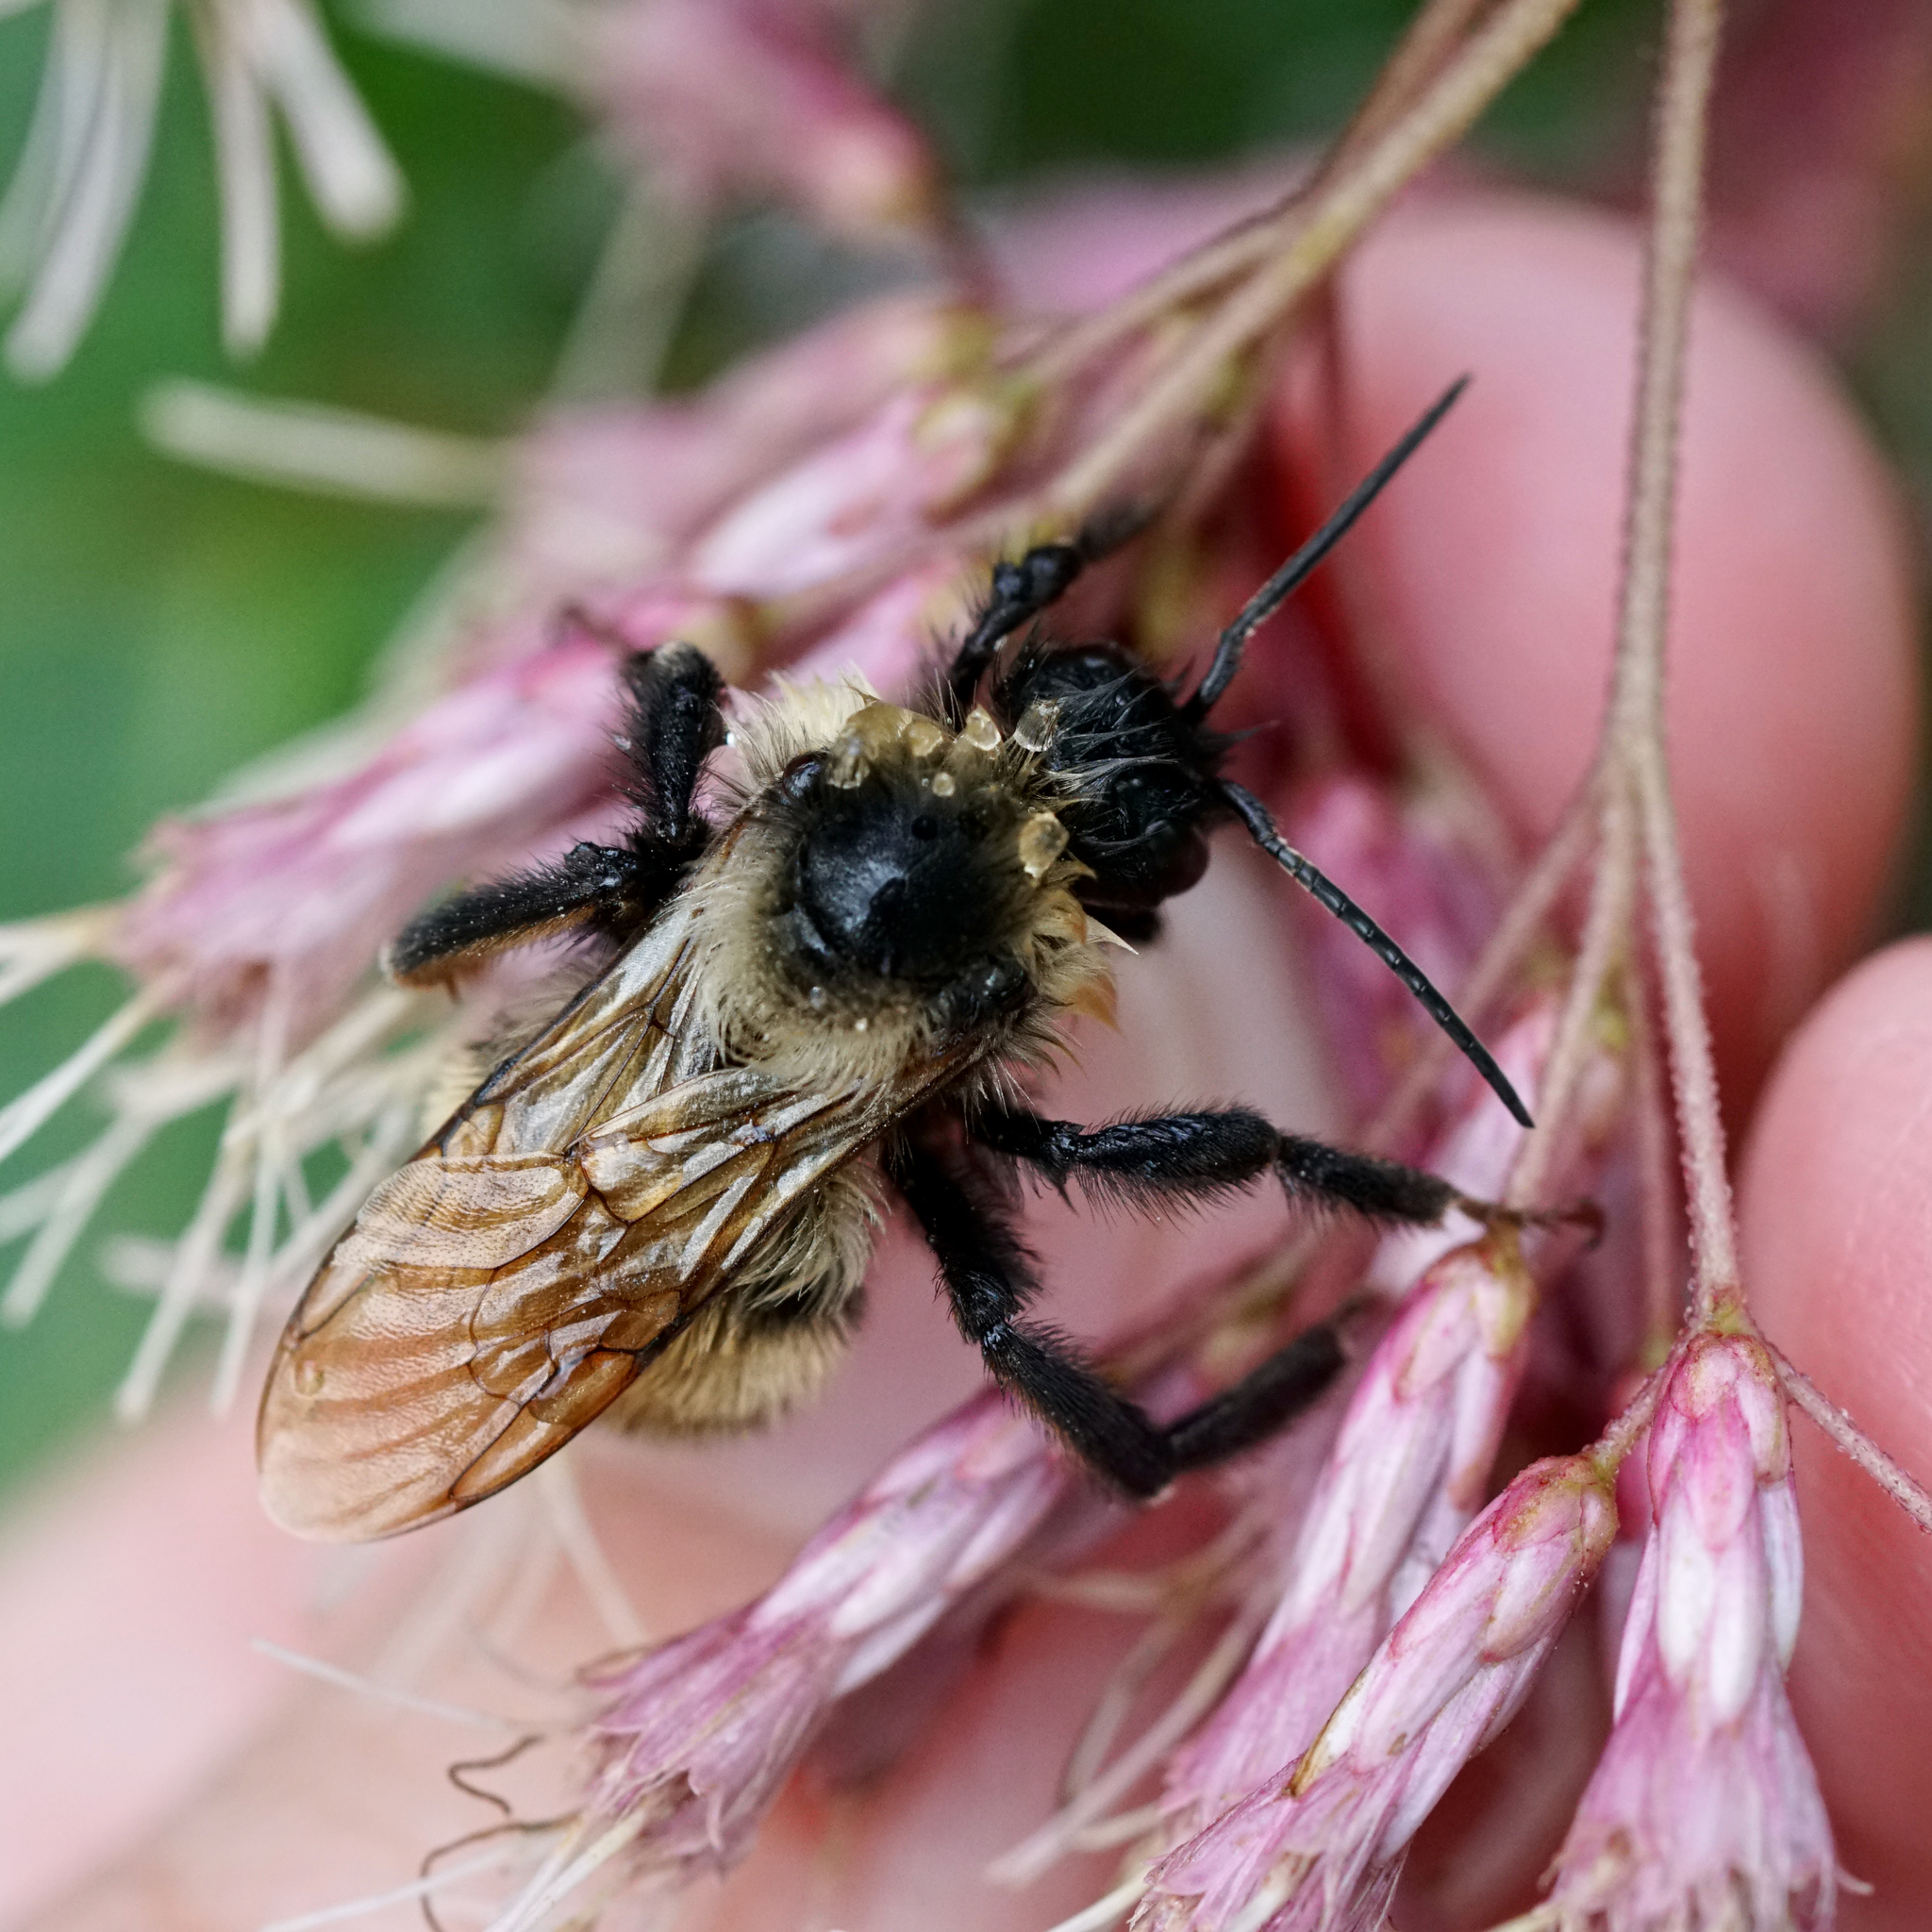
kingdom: Animalia
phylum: Arthropoda
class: Insecta
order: Hymenoptera
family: Apidae
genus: Bombus
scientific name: Bombus citrinus
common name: Lemon cuckoo bumble bee
